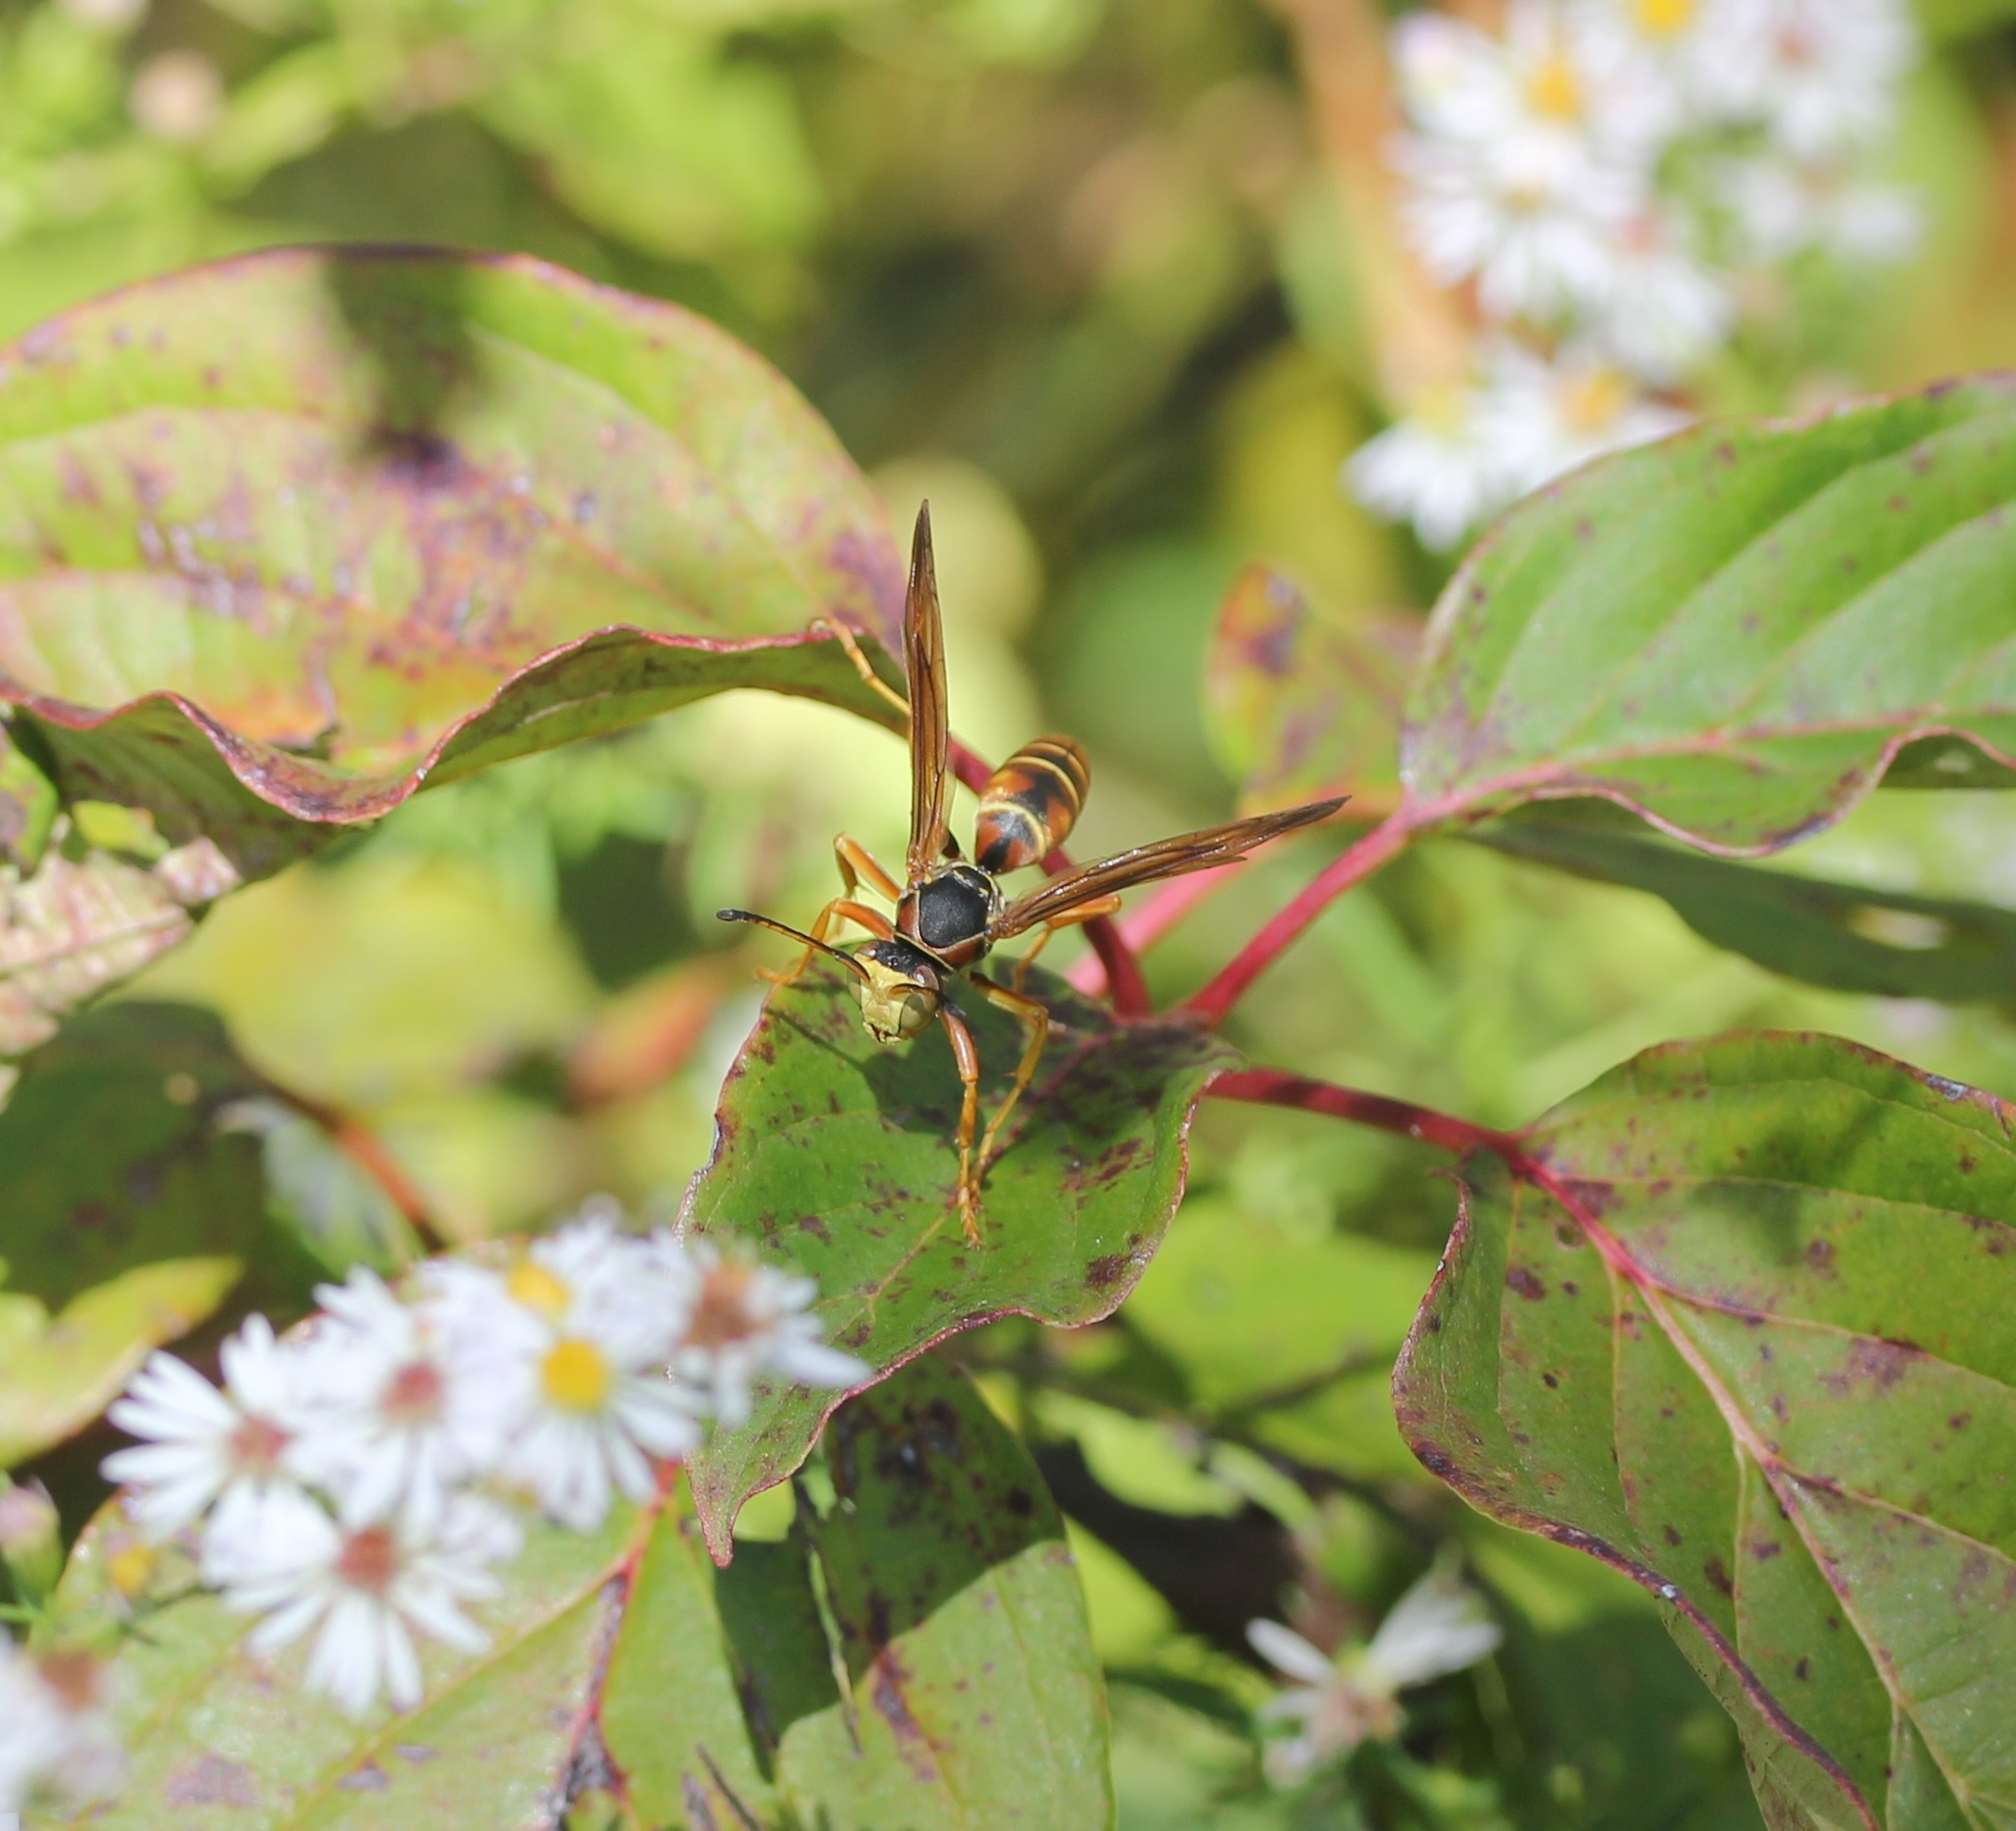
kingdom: Animalia
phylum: Arthropoda
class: Insecta
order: Hymenoptera
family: Eumenidae
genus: Polistes
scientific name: Polistes fuscatus
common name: Dark paper wasp
